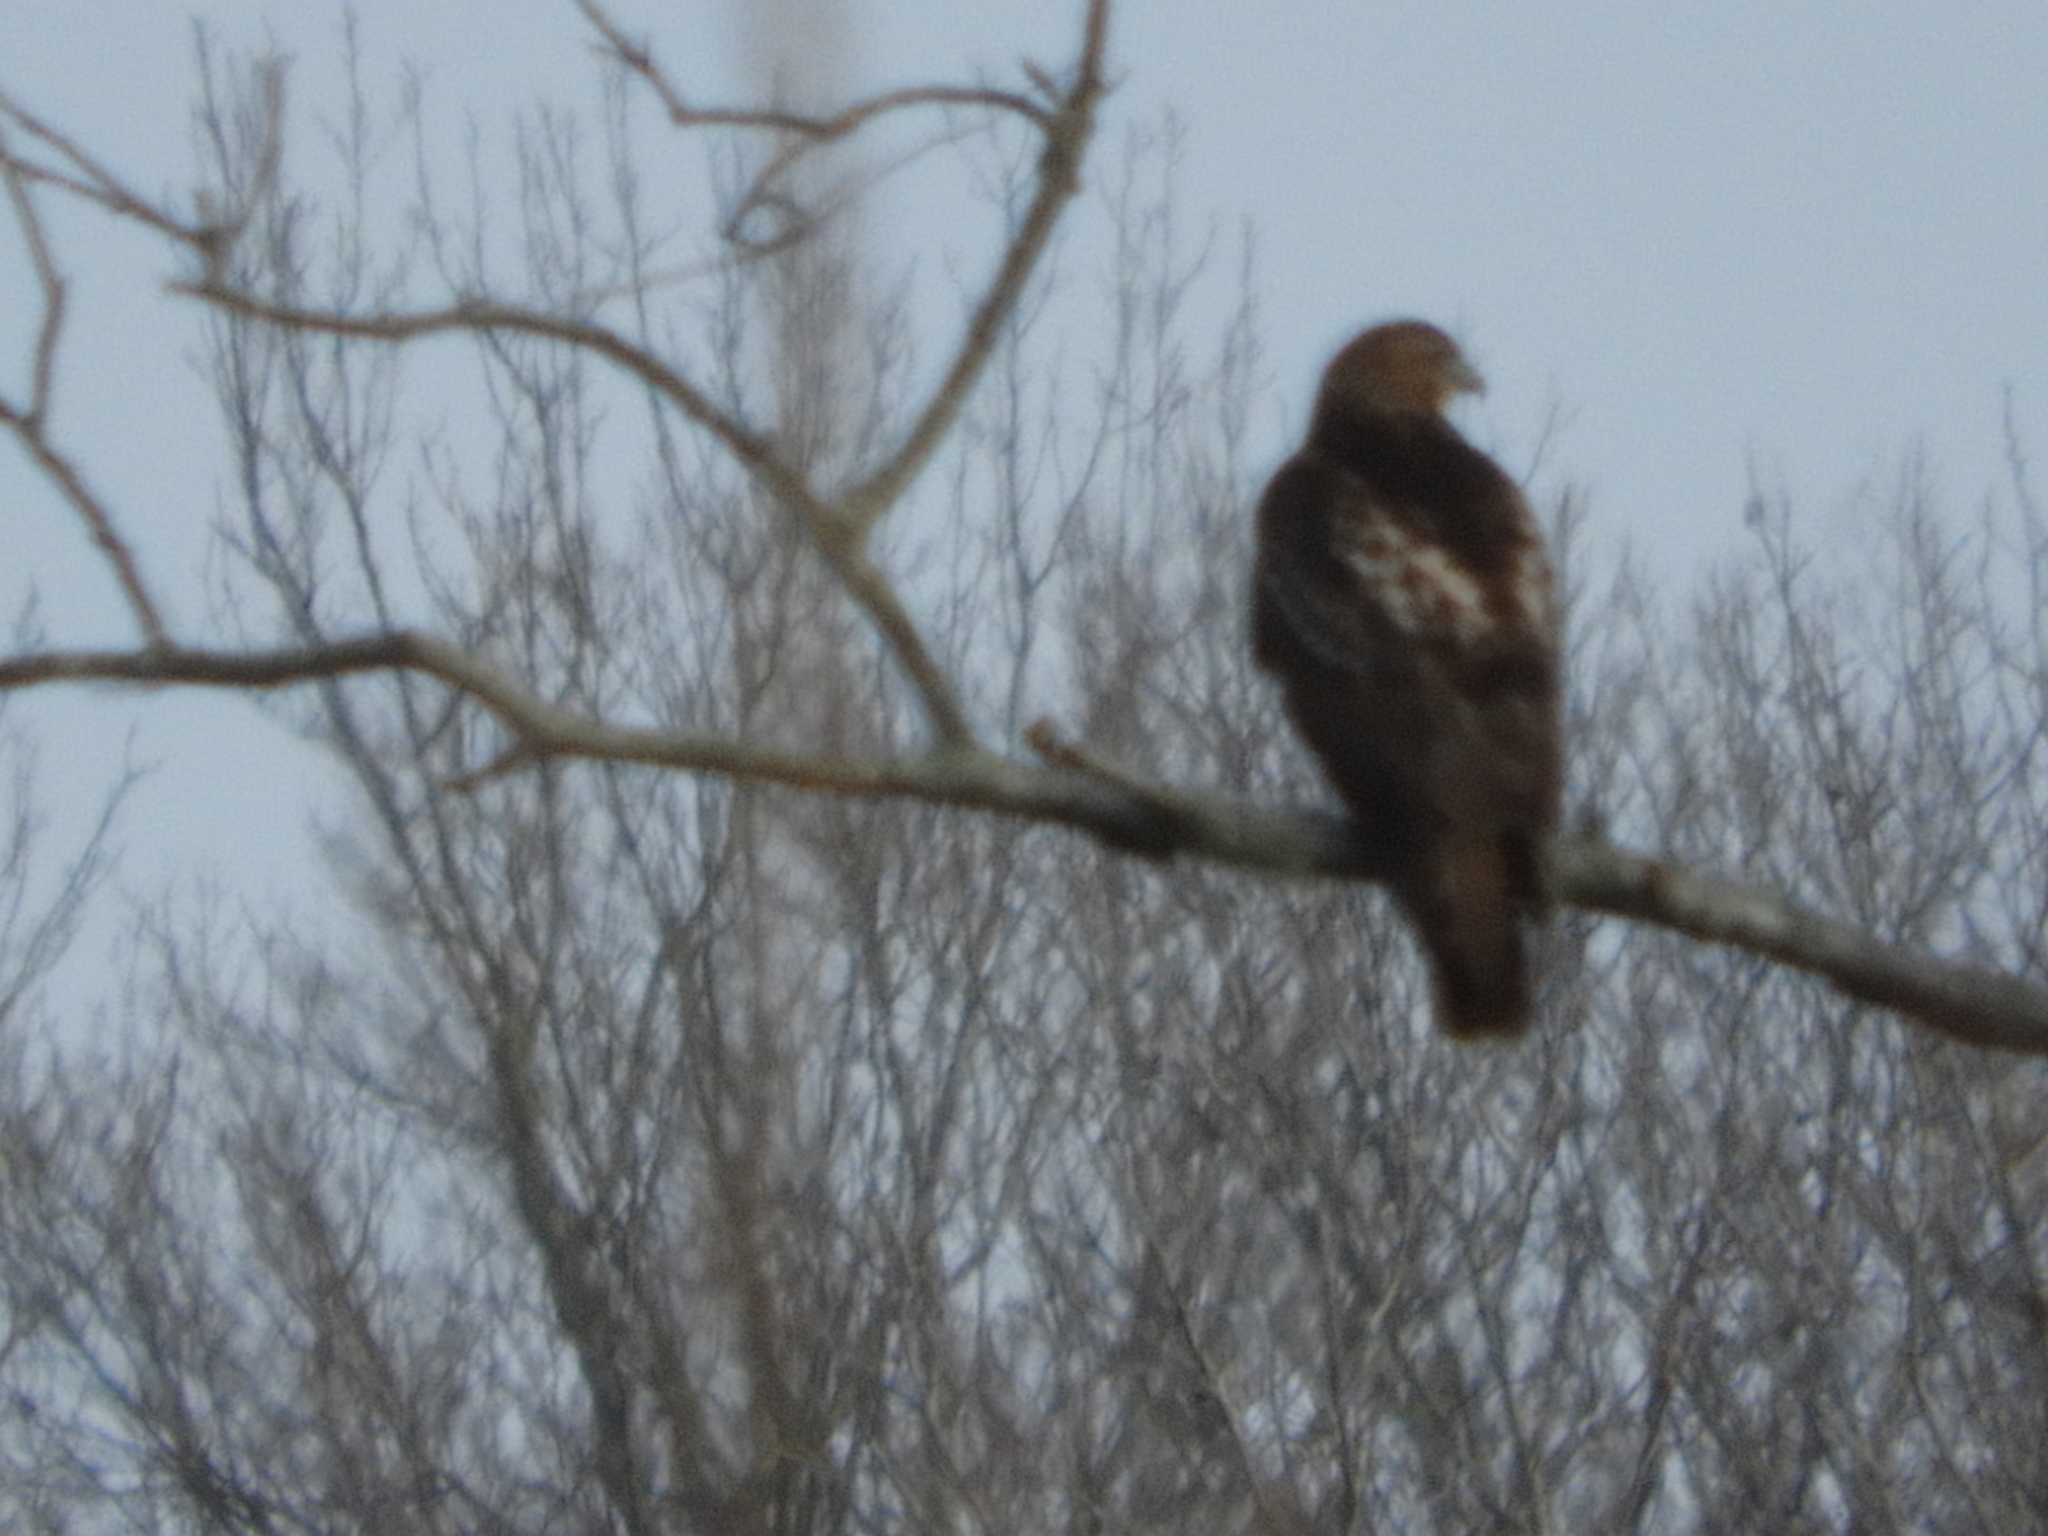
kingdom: Animalia
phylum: Chordata
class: Aves
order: Accipitriformes
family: Accipitridae
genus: Buteo
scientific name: Buteo jamaicensis
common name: Red-tailed hawk
